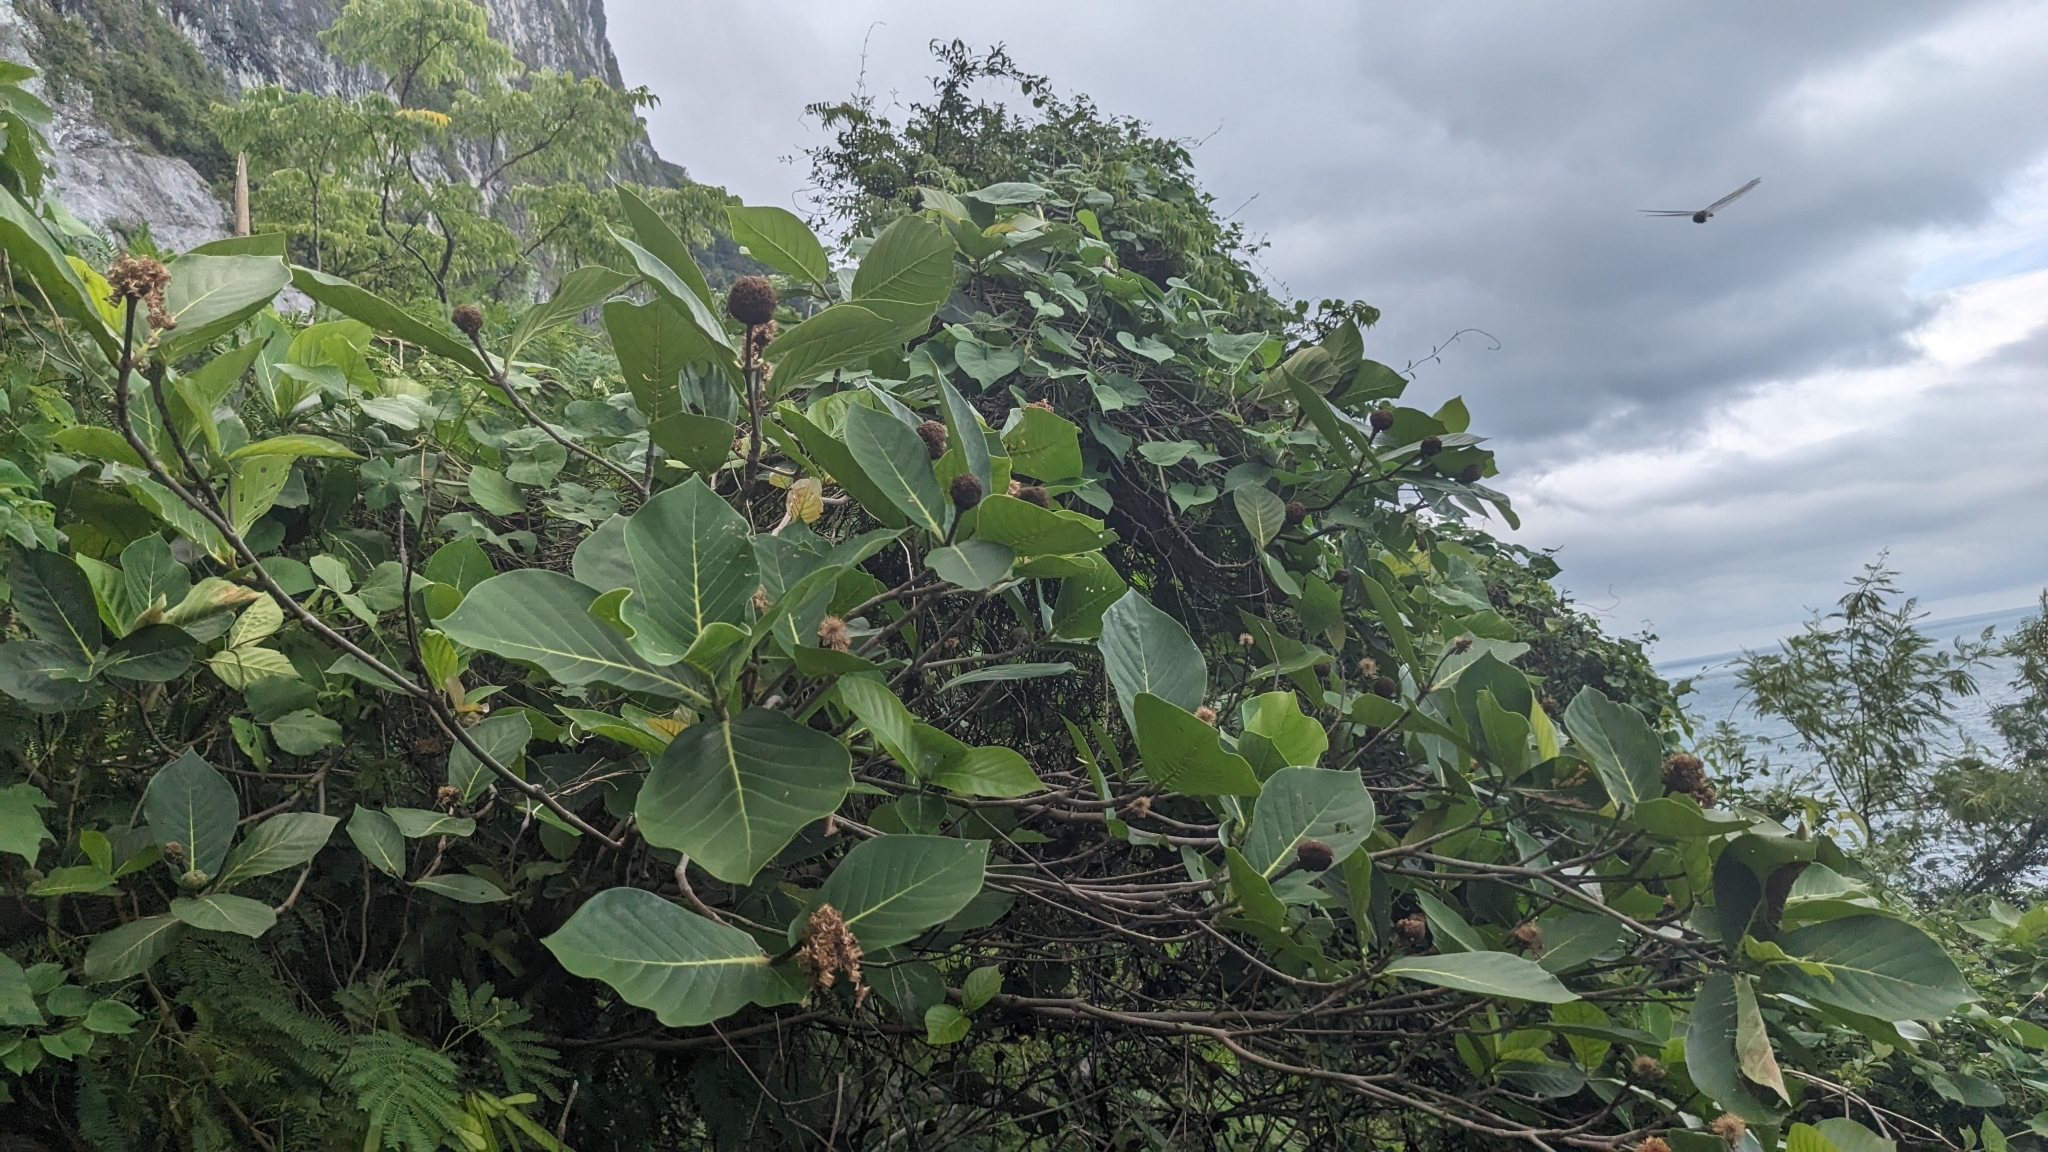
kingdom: Plantae
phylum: Tracheophyta
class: Magnoliopsida
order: Gentianales
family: Rubiaceae
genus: Neonauclea
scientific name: Neonauclea reticulata
